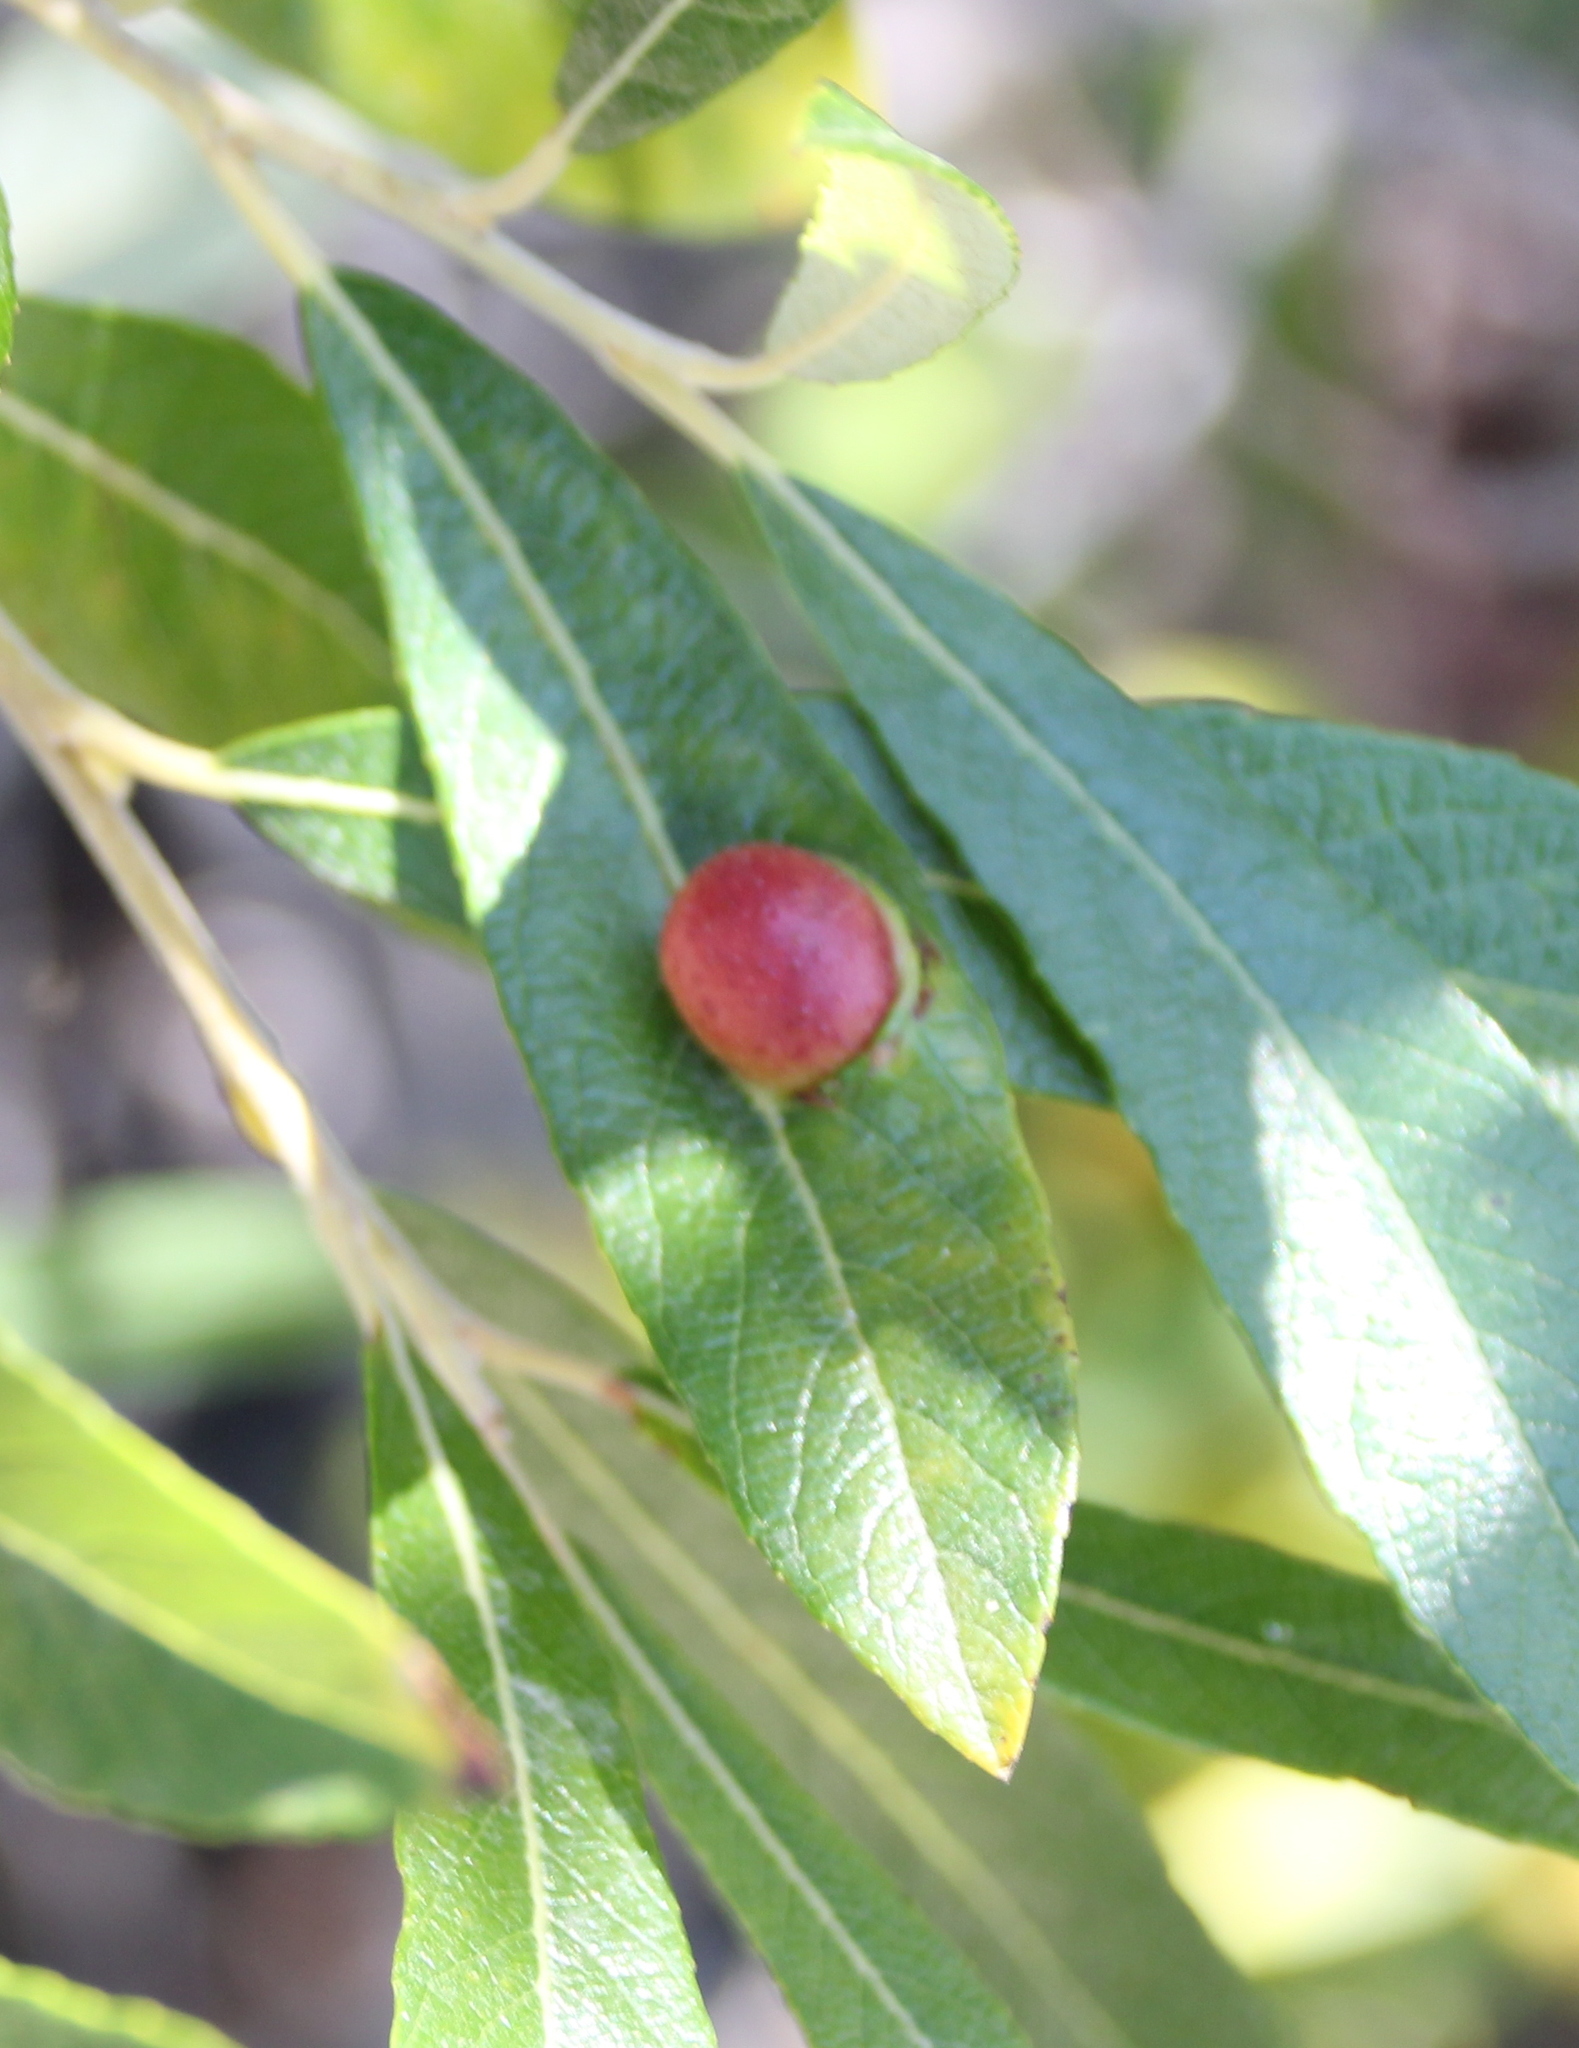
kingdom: Animalia
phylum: Arthropoda
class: Insecta
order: Hymenoptera
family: Tenthredinidae
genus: Euura
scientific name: Euura
